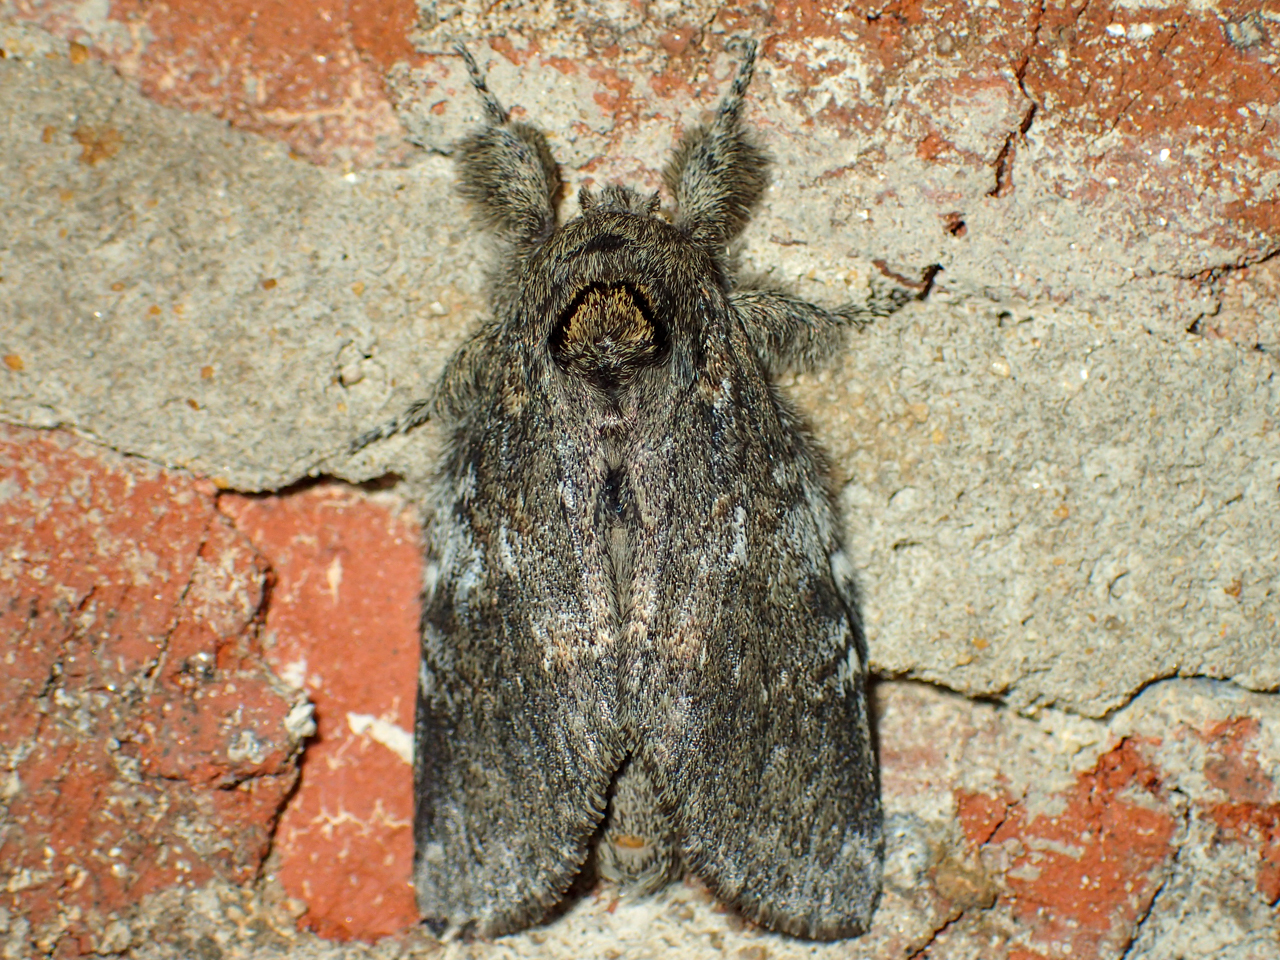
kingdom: Animalia
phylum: Arthropoda
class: Insecta
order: Lepidoptera
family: Notodontidae
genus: Peridea
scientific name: Peridea angulosa
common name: Angulose prominent
